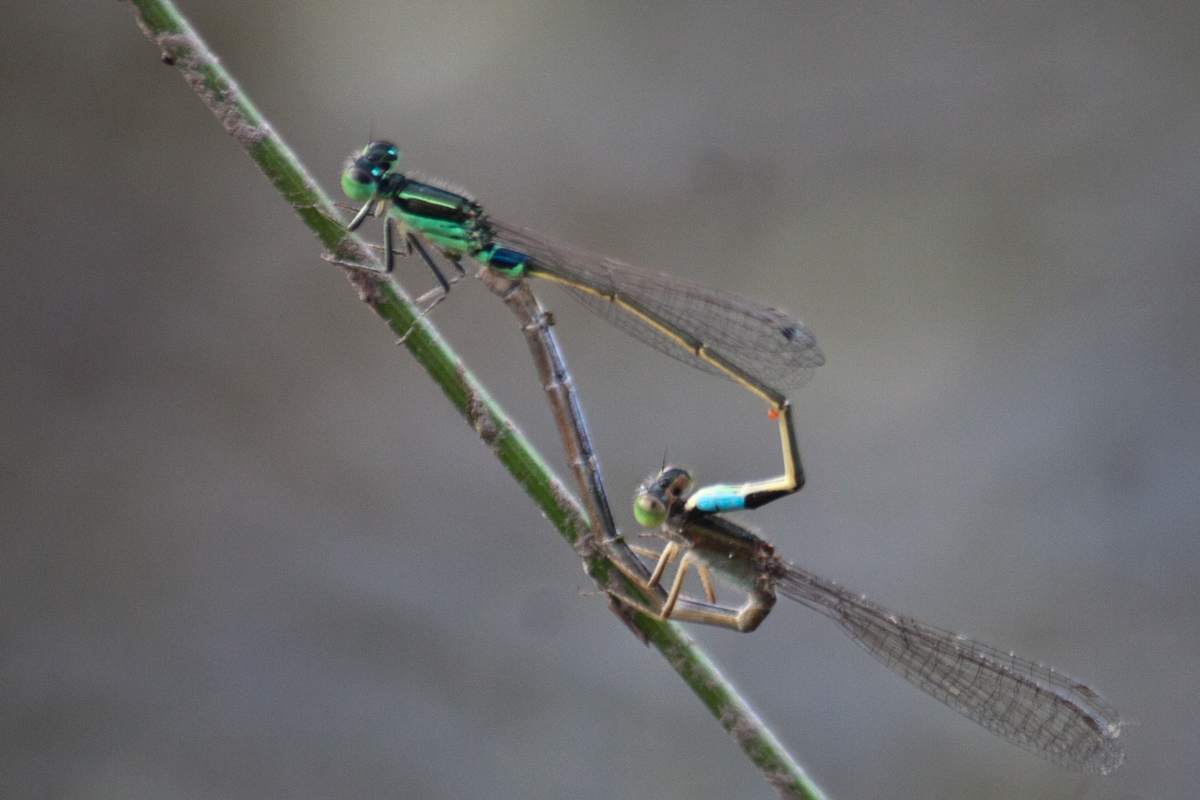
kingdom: Animalia
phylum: Arthropoda
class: Insecta
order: Odonata
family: Coenagrionidae
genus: Ischnura
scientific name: Ischnura senegalensis
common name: Tropical bluetail
